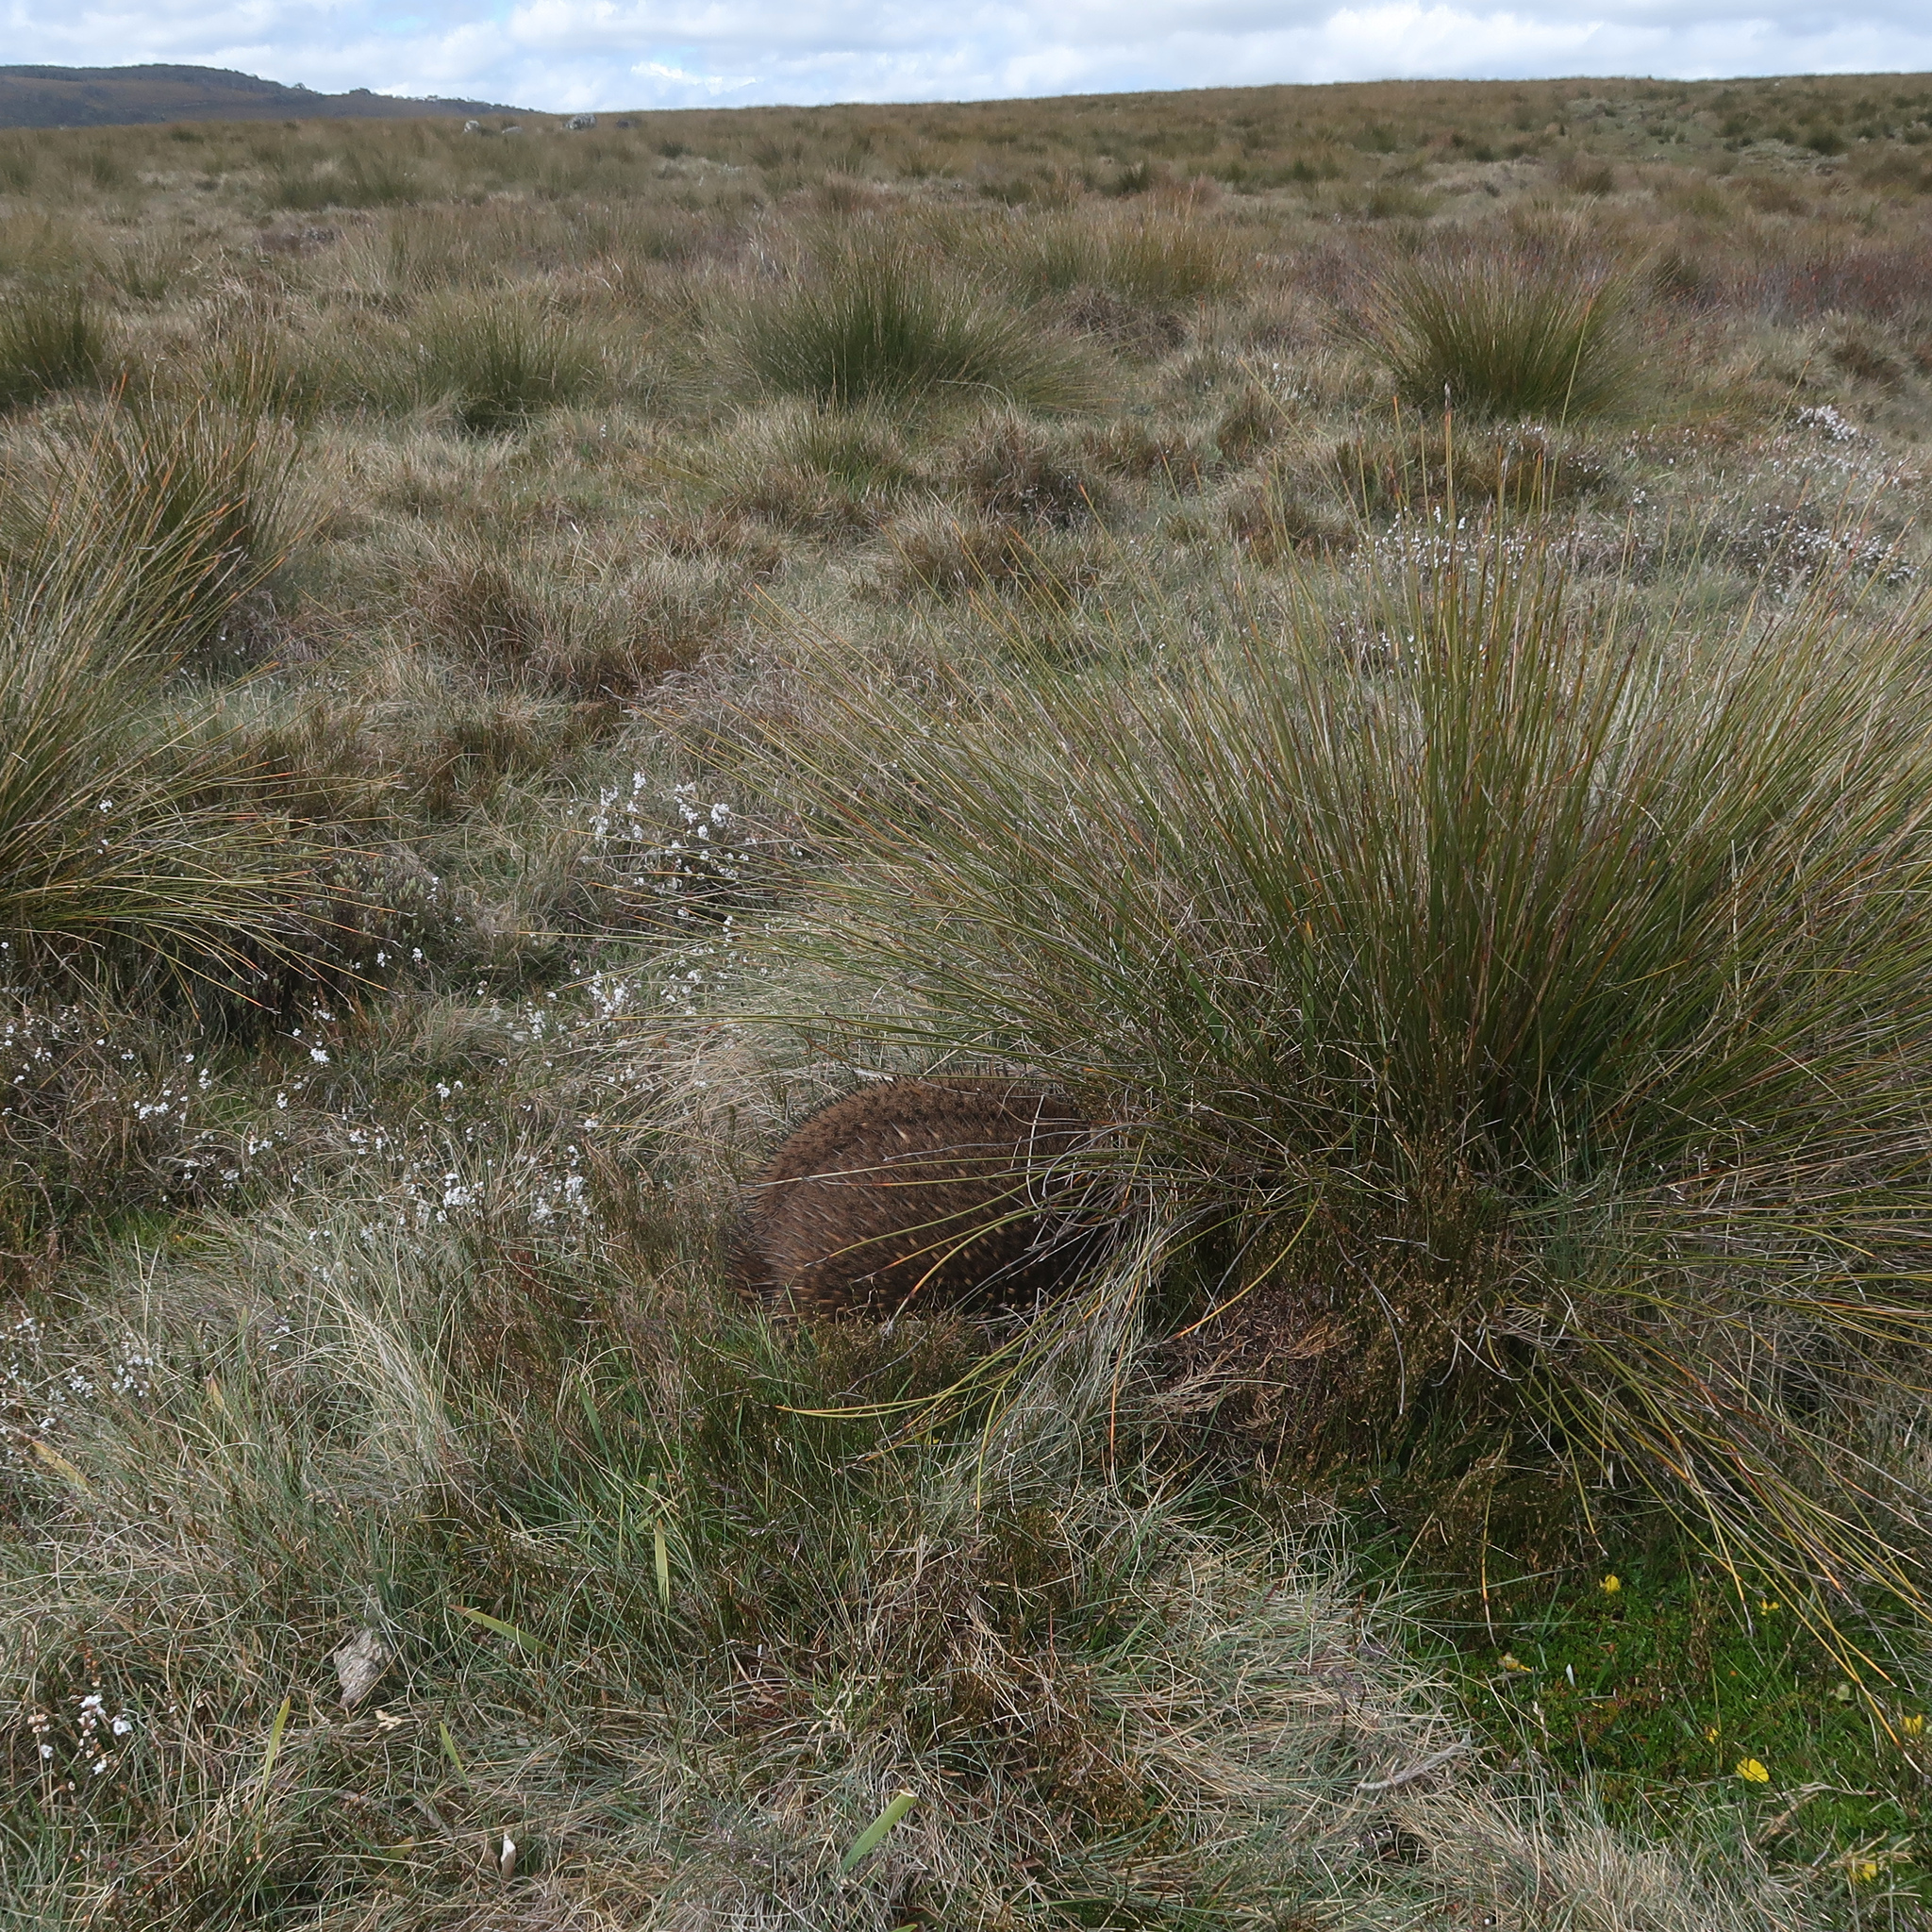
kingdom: Animalia
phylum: Chordata
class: Mammalia
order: Monotremata
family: Tachyglossidae
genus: Tachyglossus
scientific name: Tachyglossus aculeatus
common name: Short-beaked echidna
